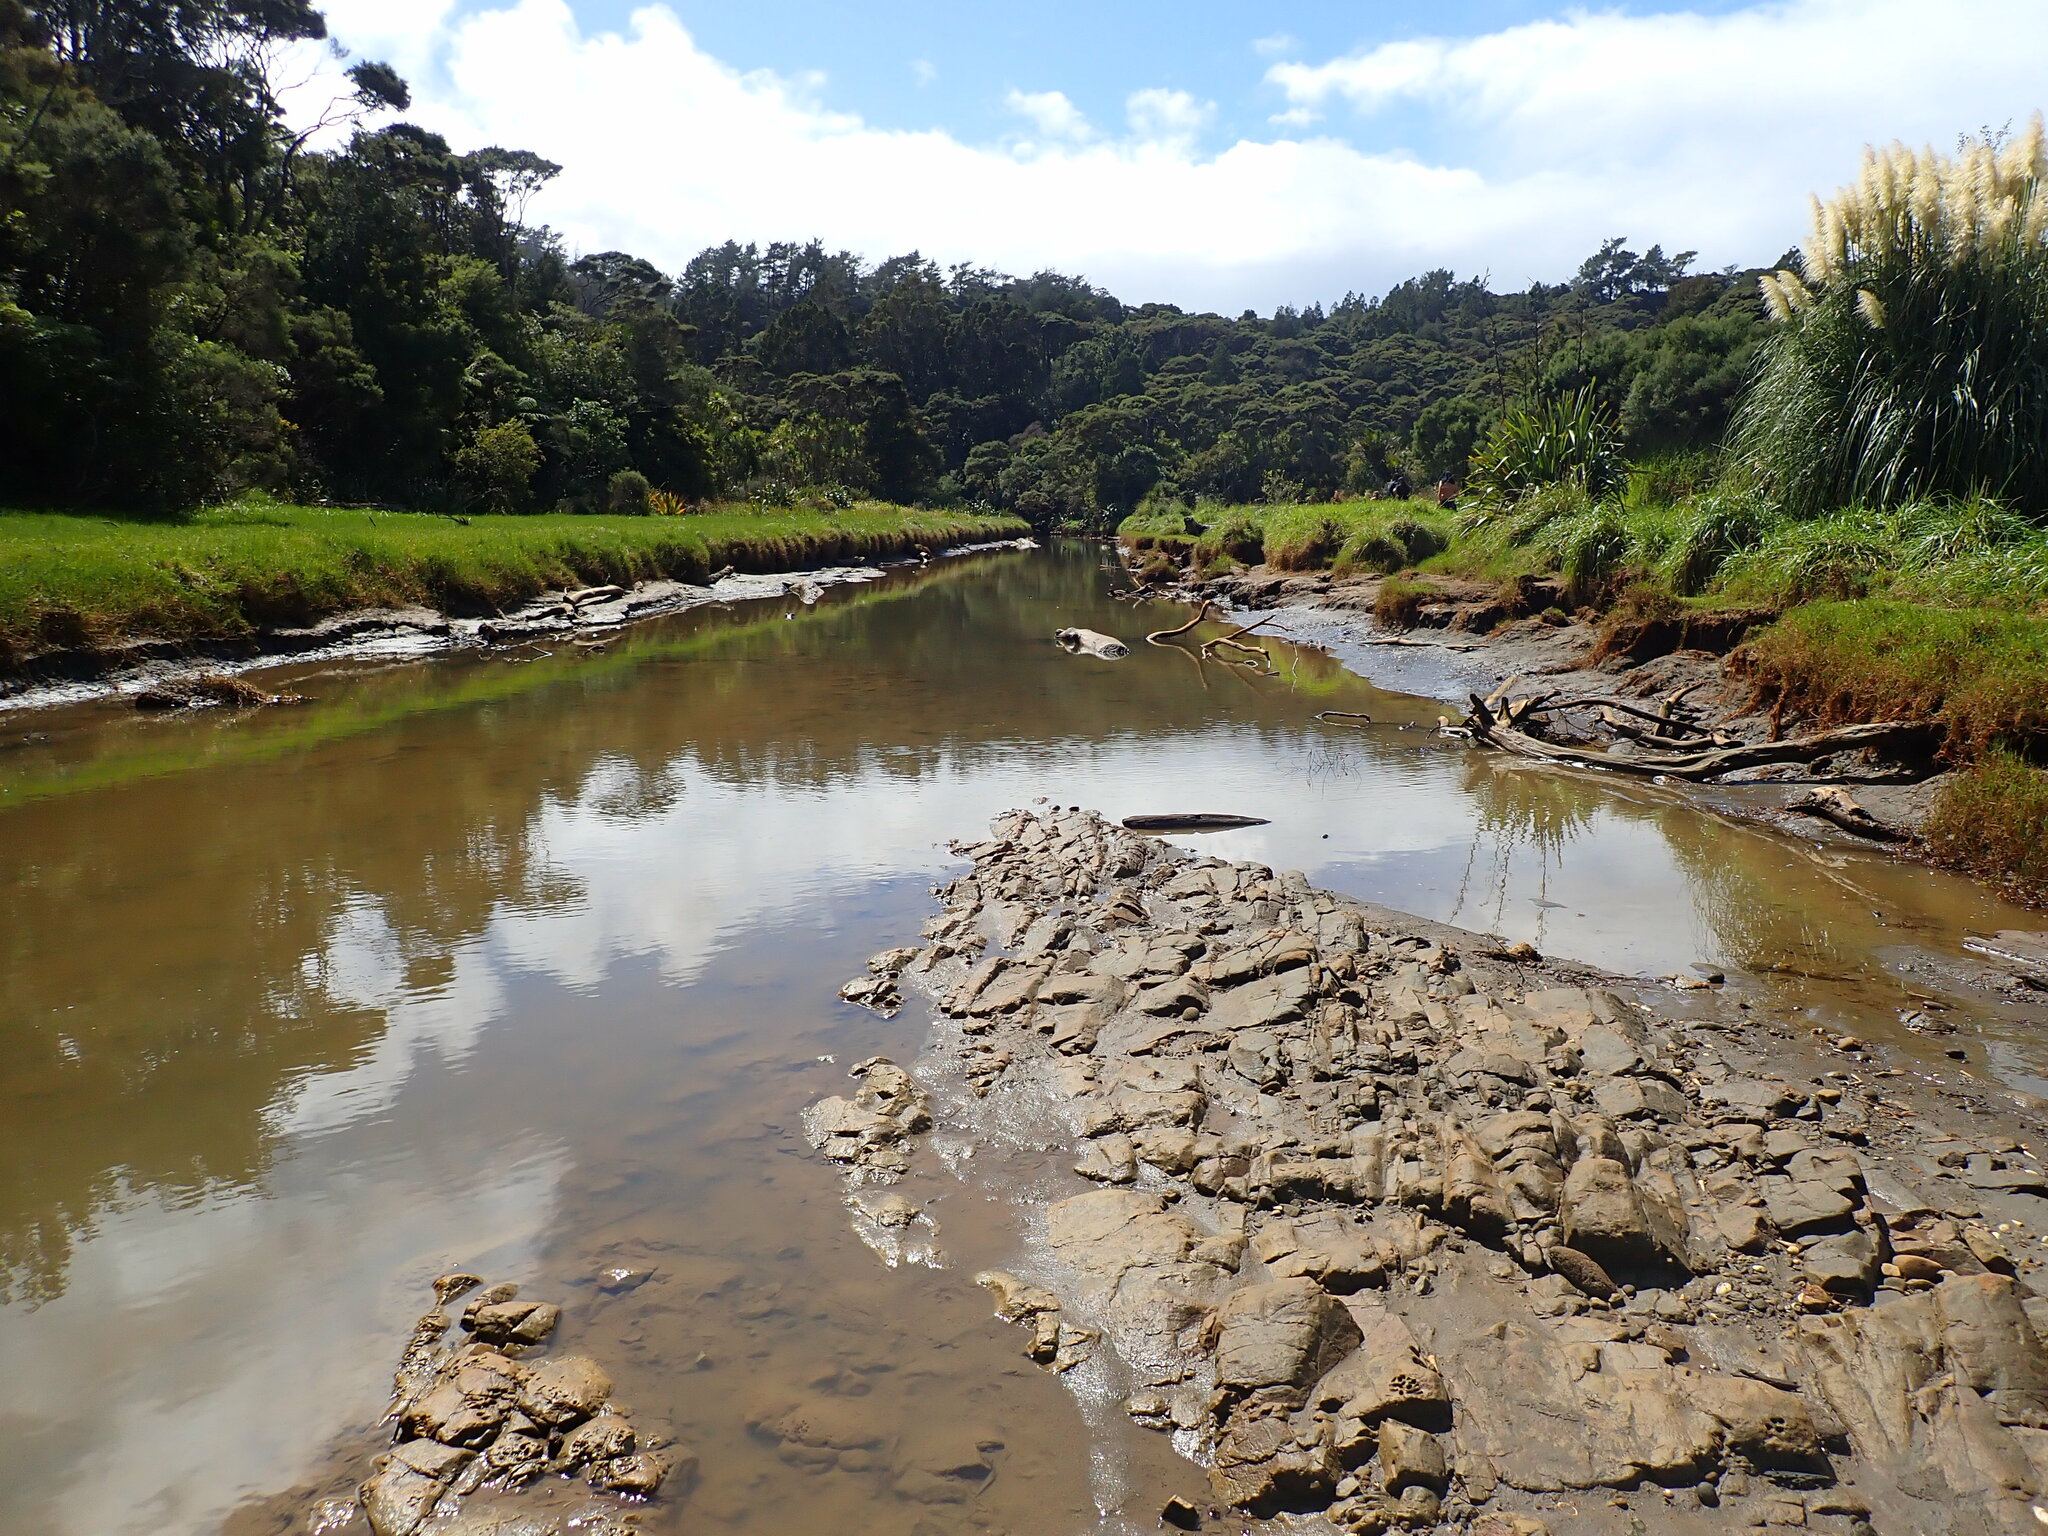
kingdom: Animalia
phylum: Mollusca
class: Gastropoda
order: Littorinimorpha
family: Tateidae
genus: Potamopyrgus
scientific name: Potamopyrgus estuarinus
